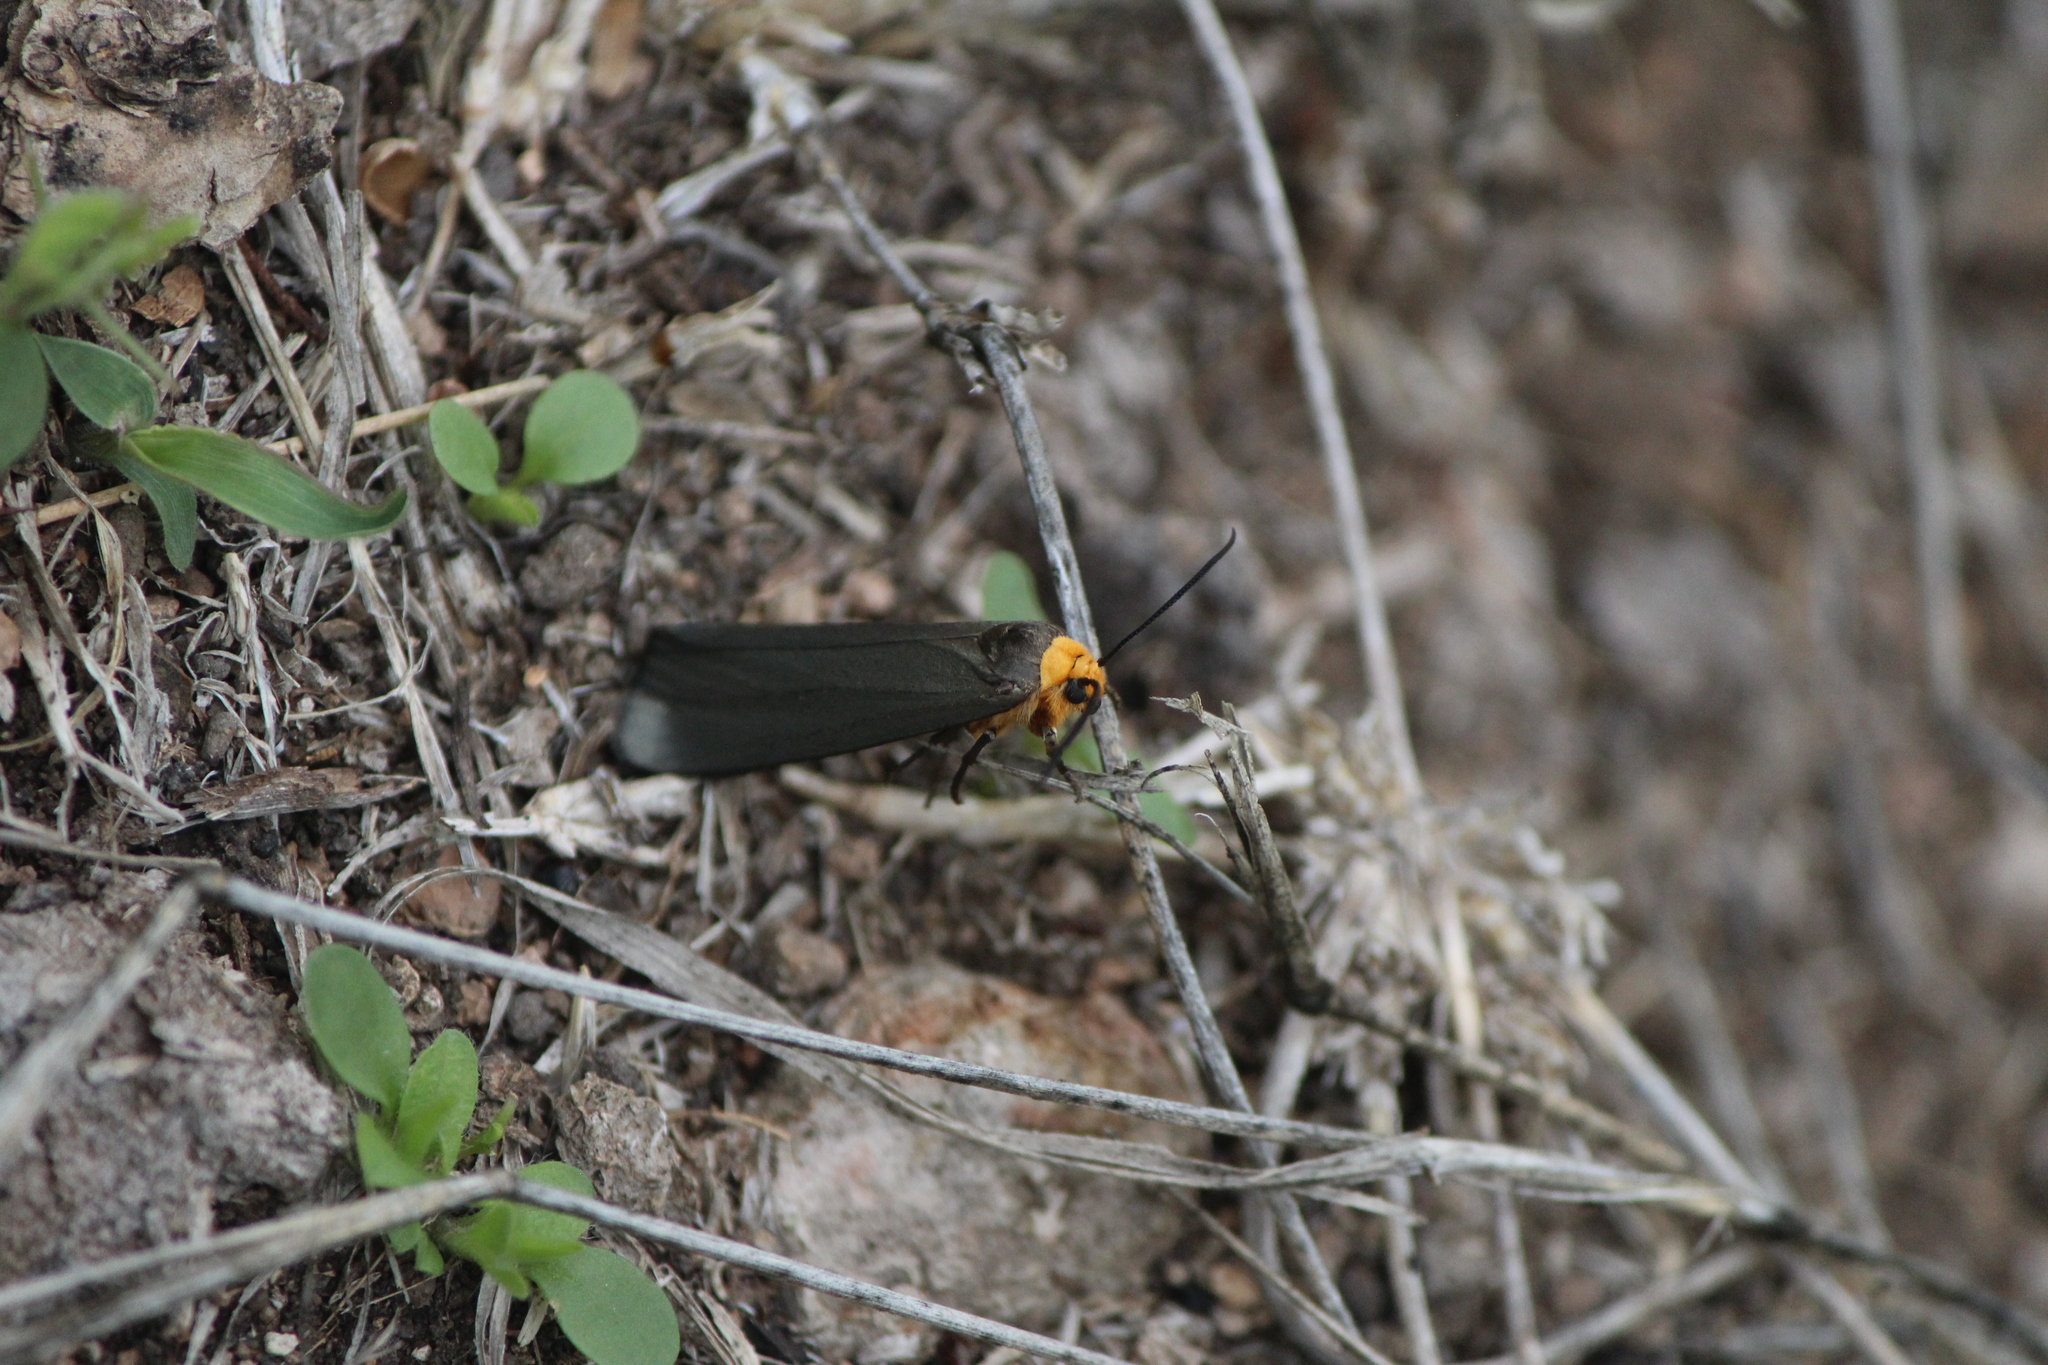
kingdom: Animalia
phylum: Arthropoda
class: Insecta
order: Lepidoptera
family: Erebidae
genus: Gnamptonychia
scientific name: Gnamptonychia ventralis
